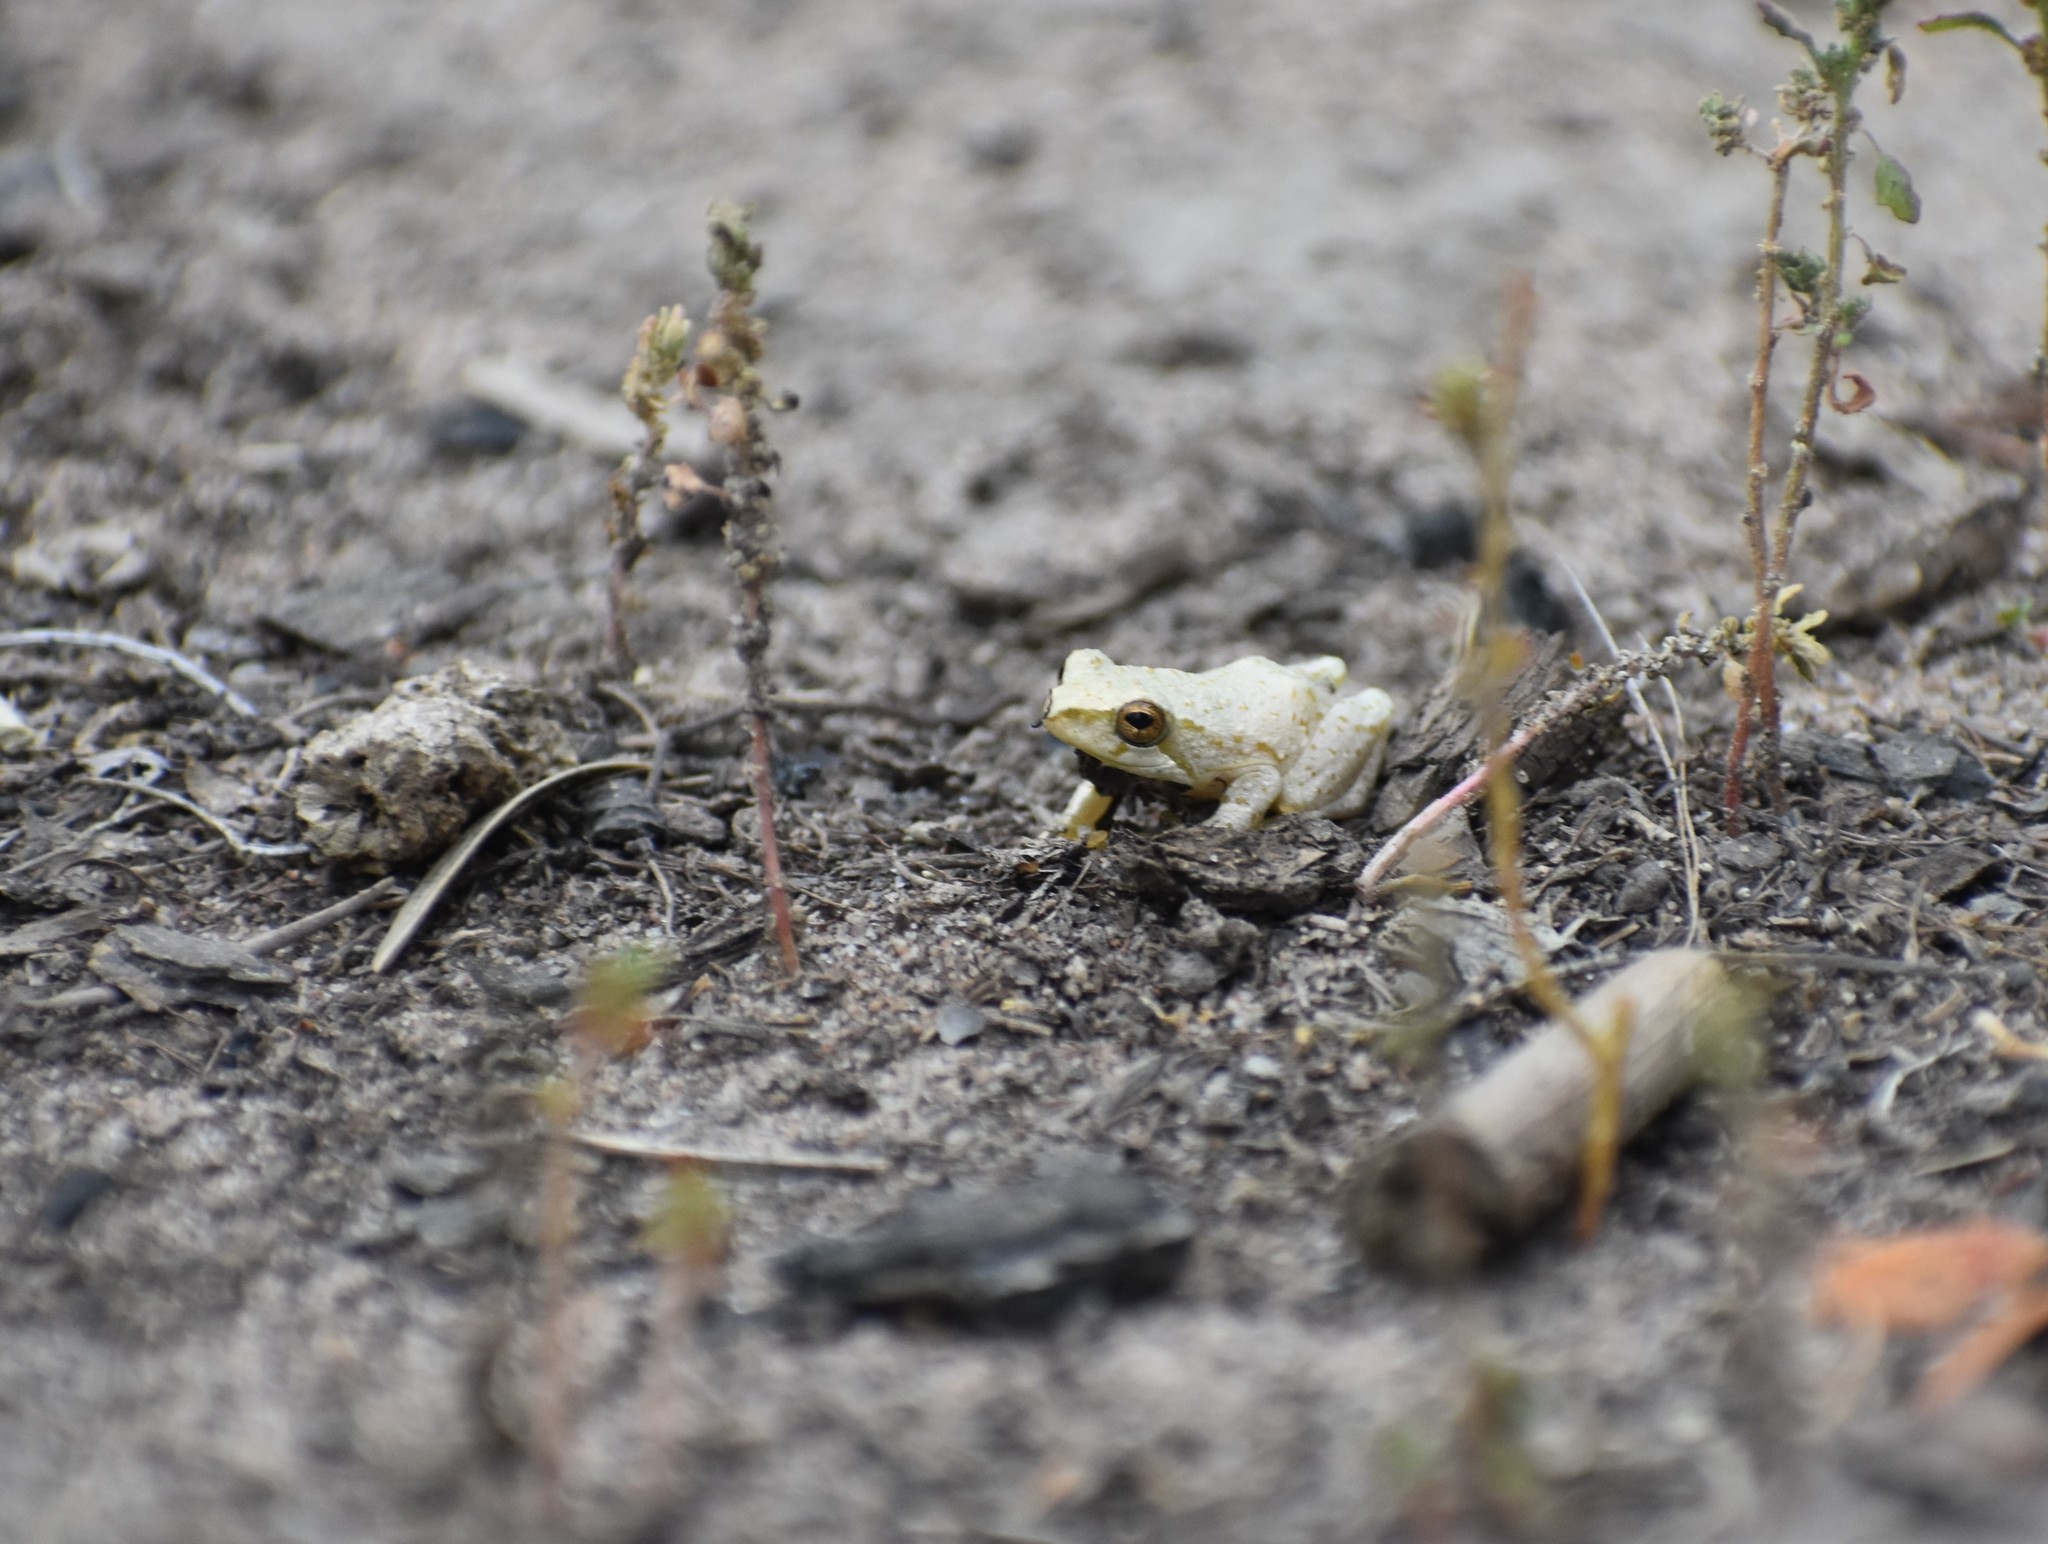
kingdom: Animalia
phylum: Chordata
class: Amphibia
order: Anura
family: Hyperoliidae
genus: Hyperolius
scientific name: Hyperolius marmoratus
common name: Painted reed frog
